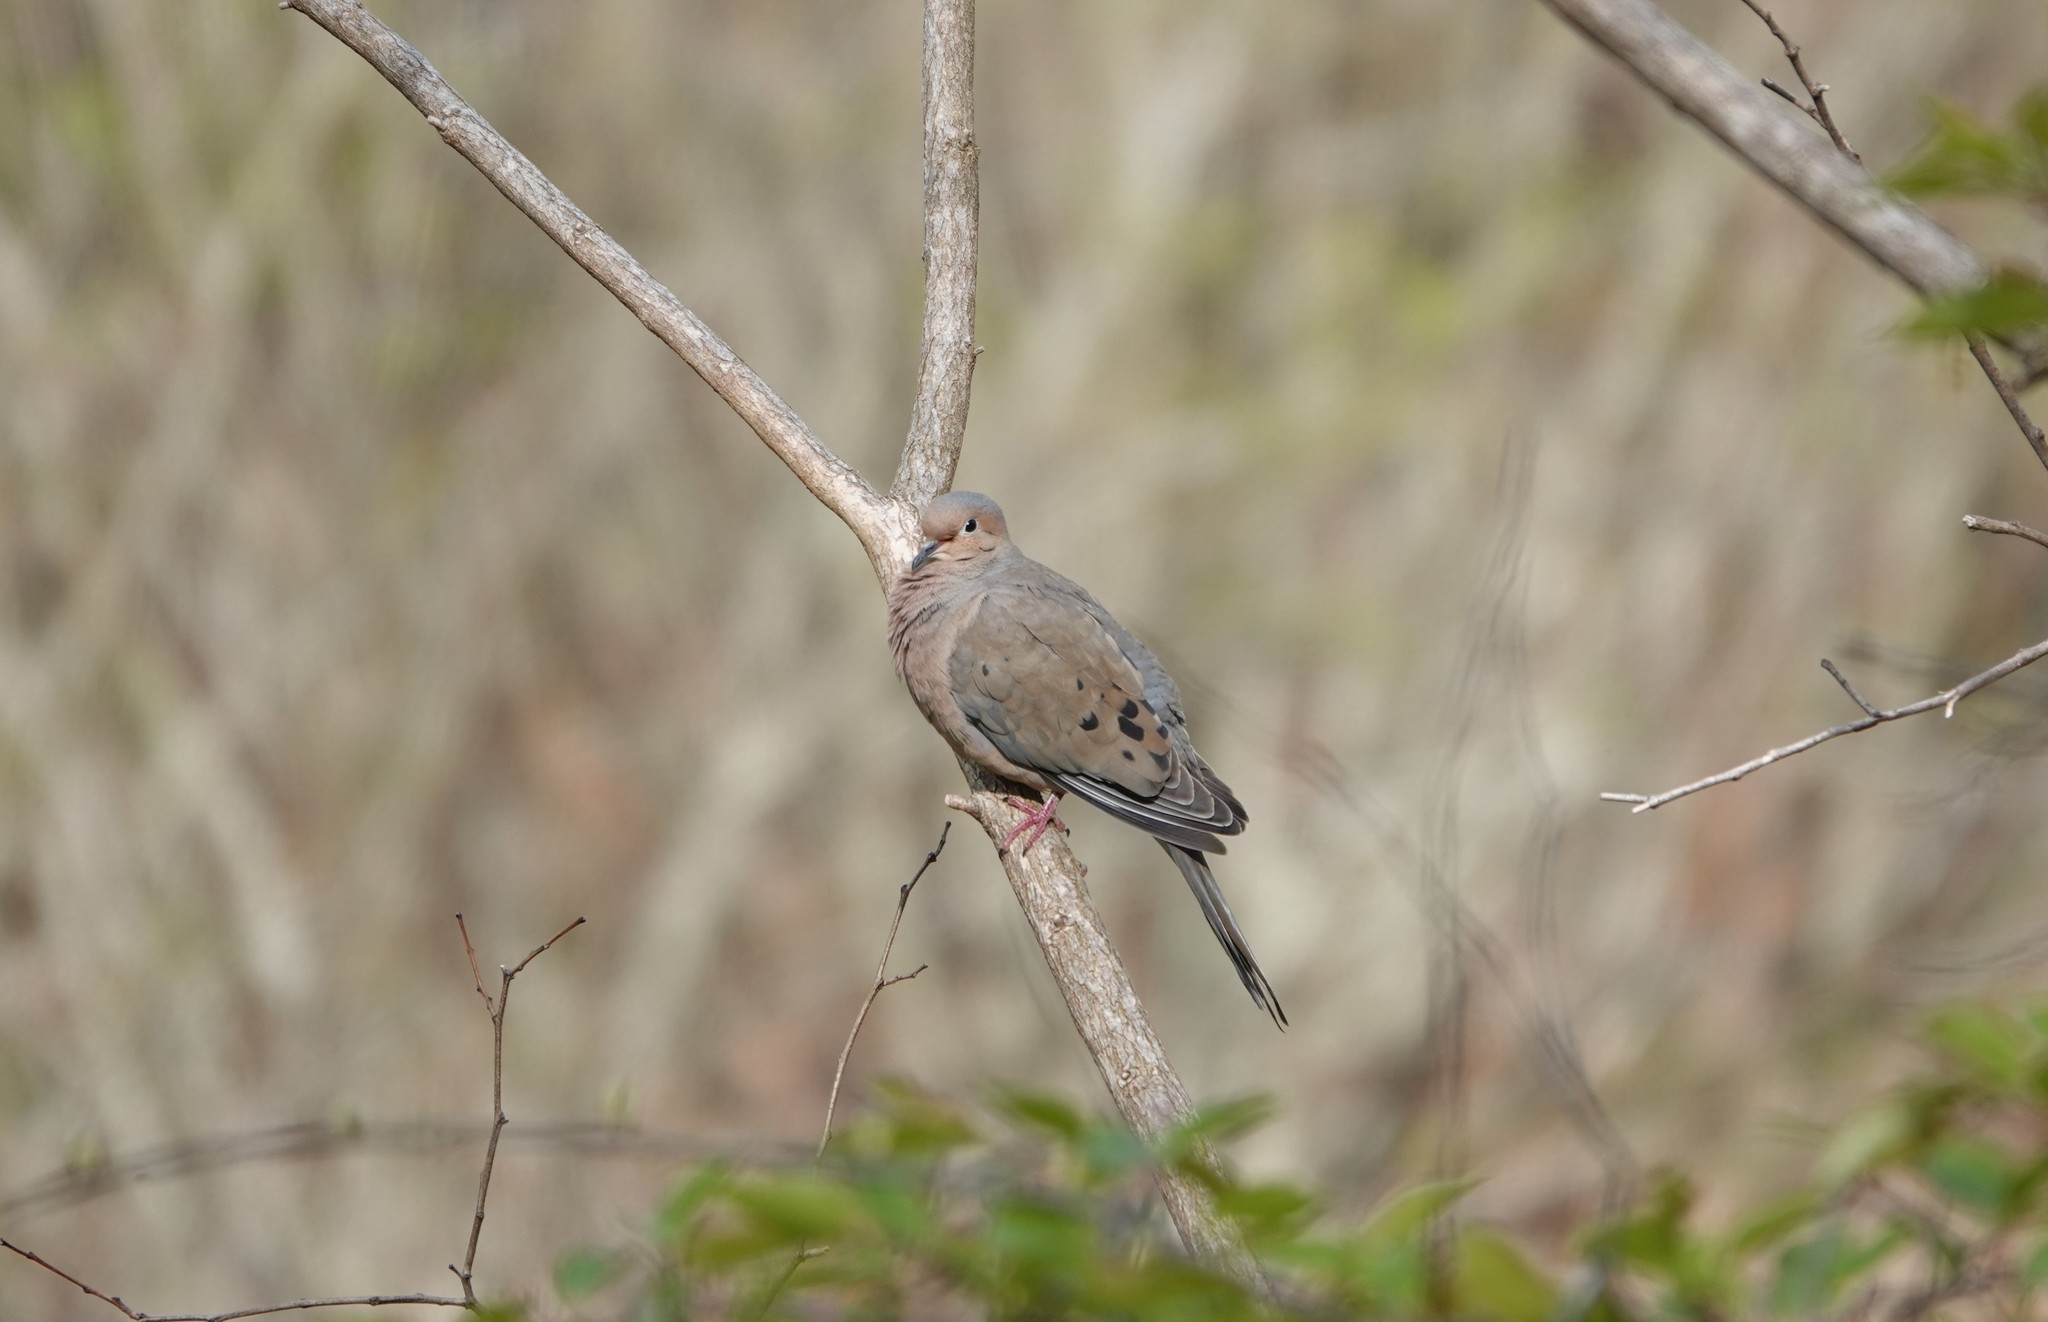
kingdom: Animalia
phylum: Chordata
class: Aves
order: Columbiformes
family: Columbidae
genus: Zenaida
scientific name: Zenaida macroura
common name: Mourning dove
